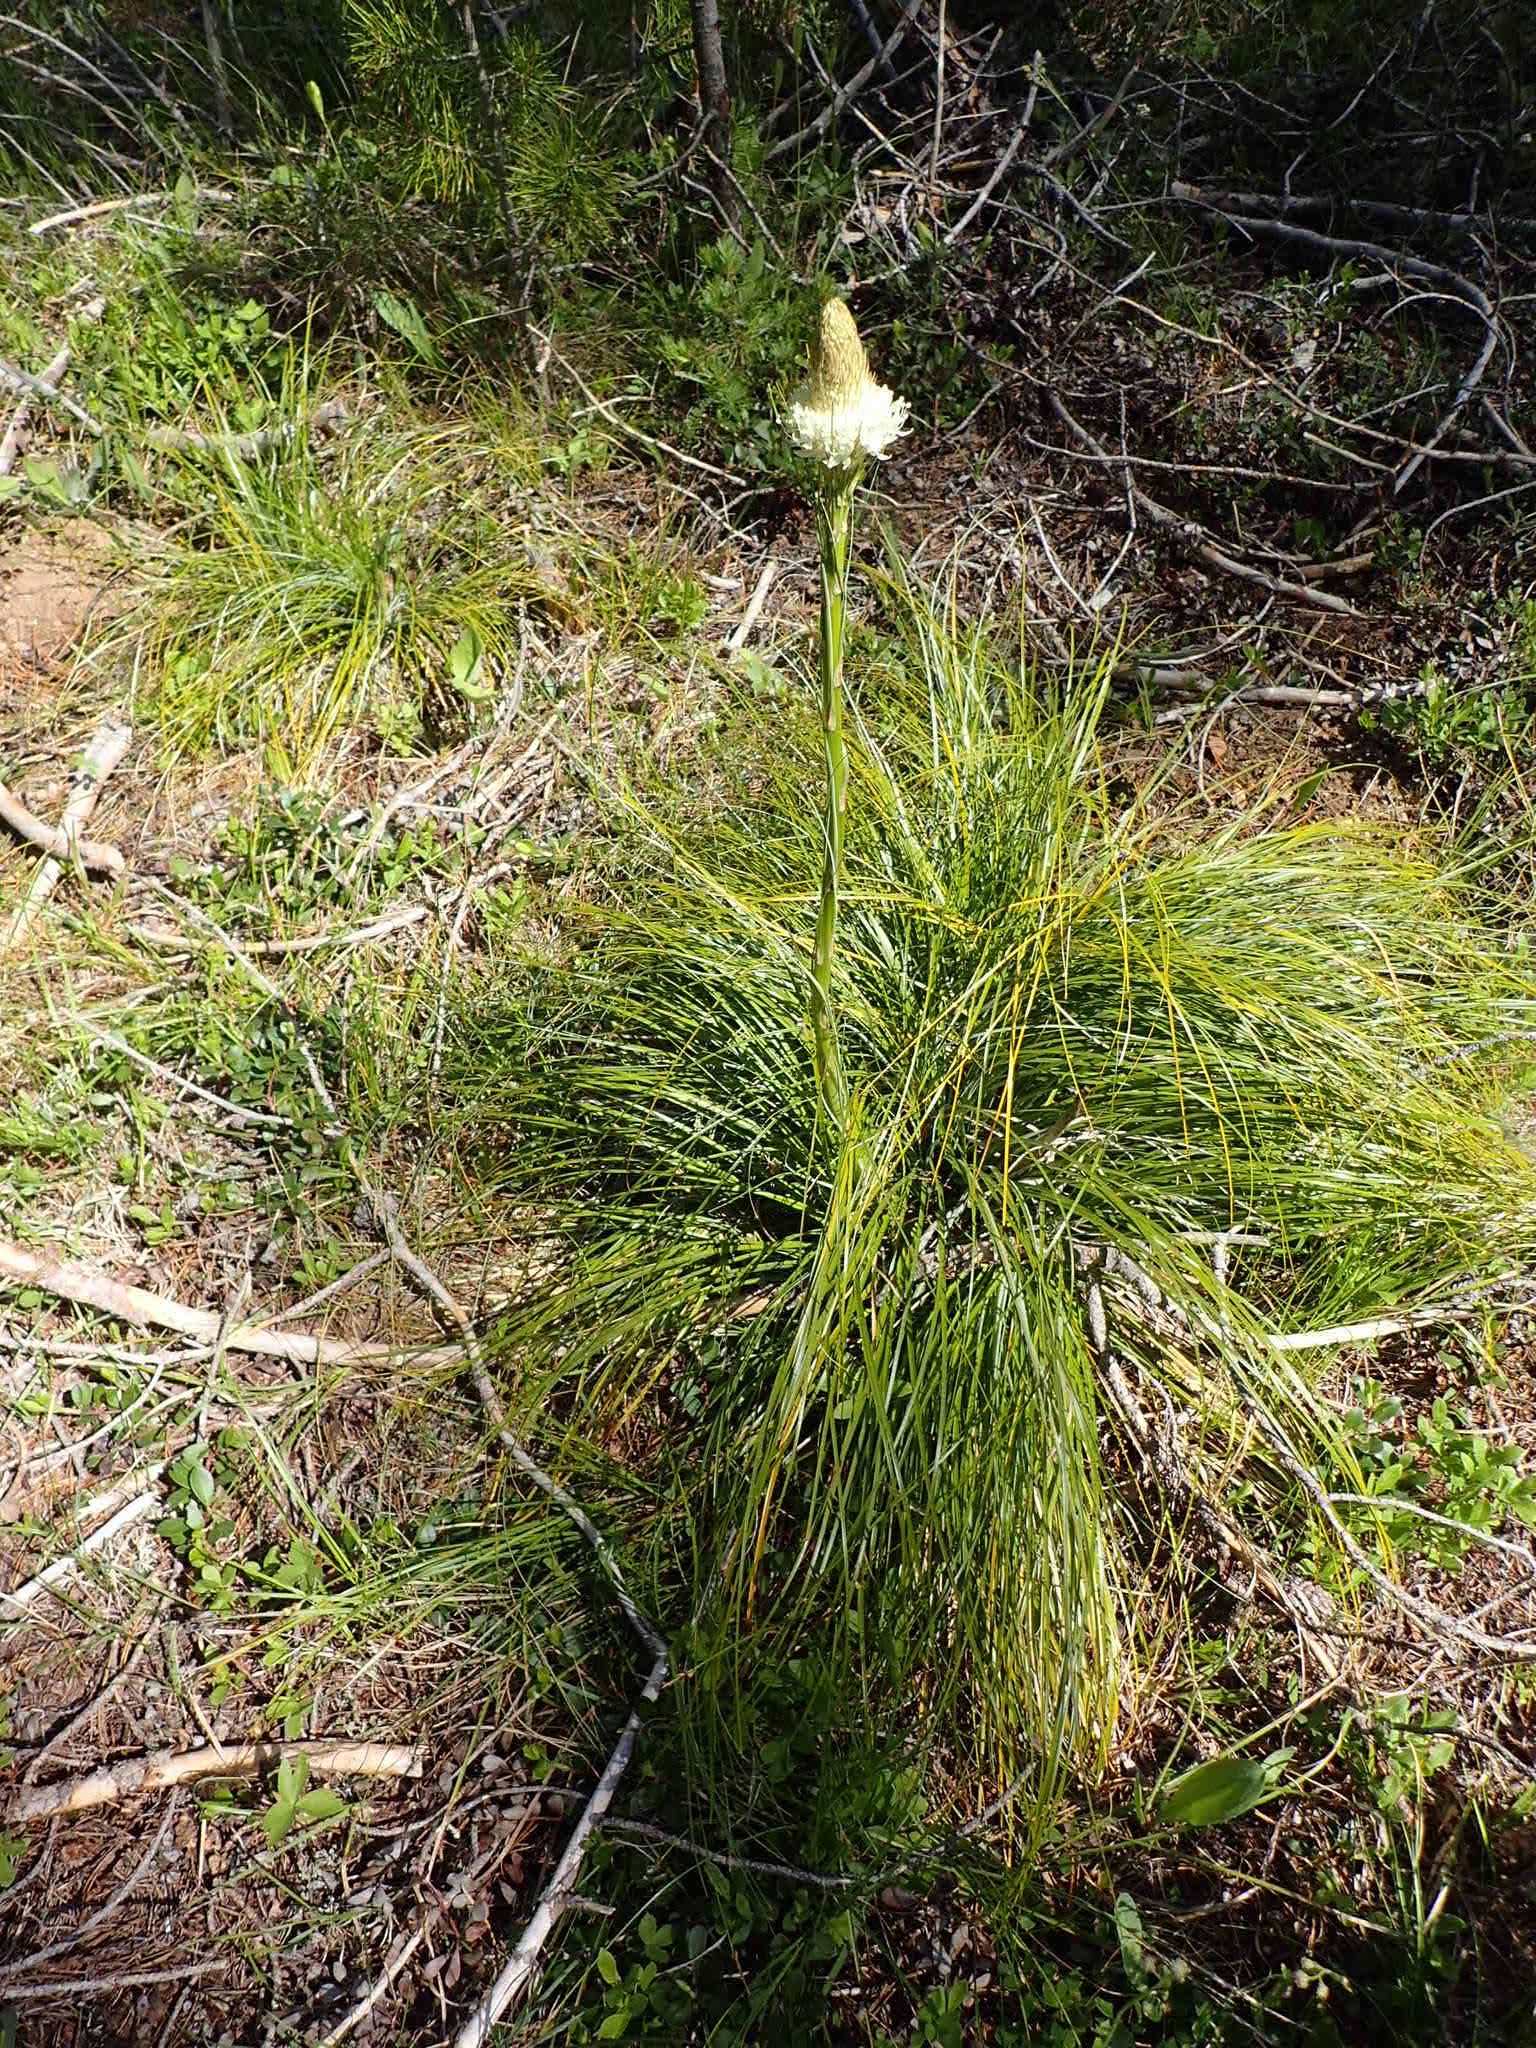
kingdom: Plantae
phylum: Tracheophyta
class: Liliopsida
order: Liliales
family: Melanthiaceae
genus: Xerophyllum
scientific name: Xerophyllum tenax
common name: Bear-grass
